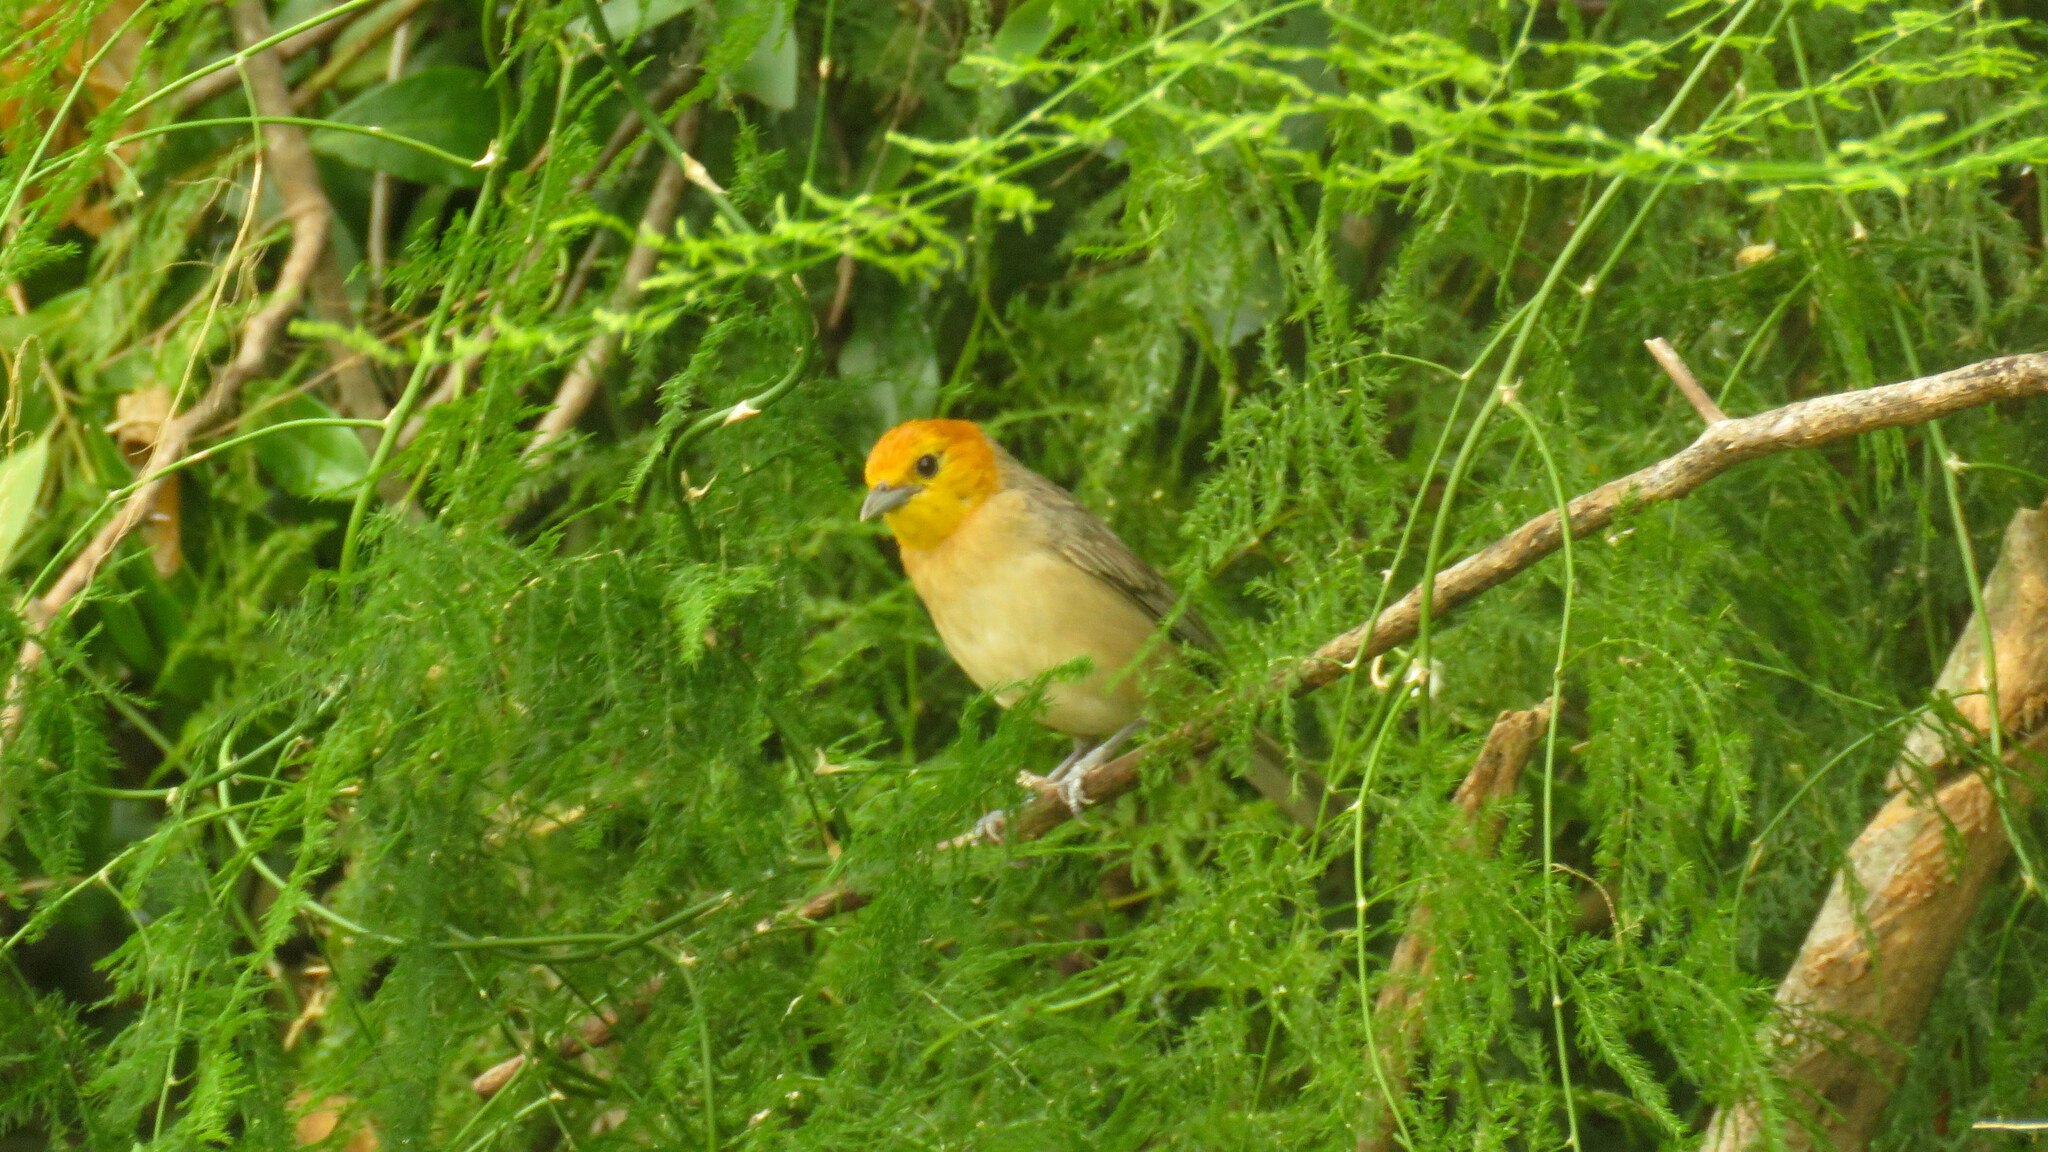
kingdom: Animalia
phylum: Chordata
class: Aves
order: Passeriformes
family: Thraupidae
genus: Thlypopsis
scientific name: Thlypopsis sordida
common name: Orange-headed tanager
